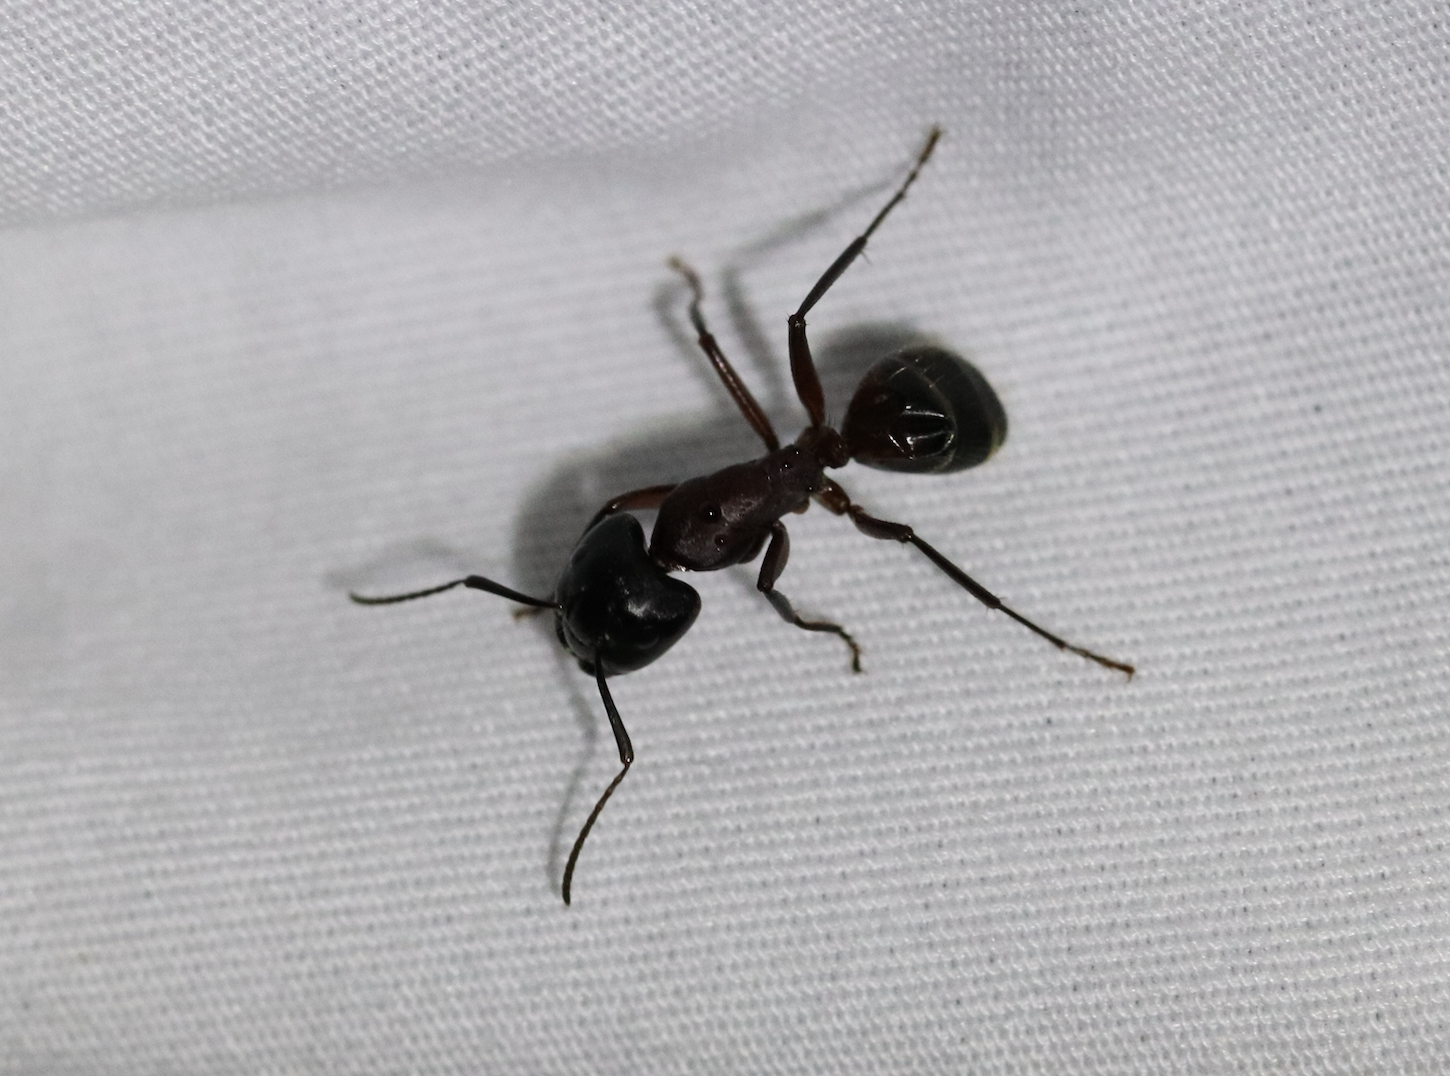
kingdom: Animalia
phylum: Arthropoda
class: Insecta
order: Hymenoptera
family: Formicidae
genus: Camponotus
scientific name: Camponotus ligniperdus
